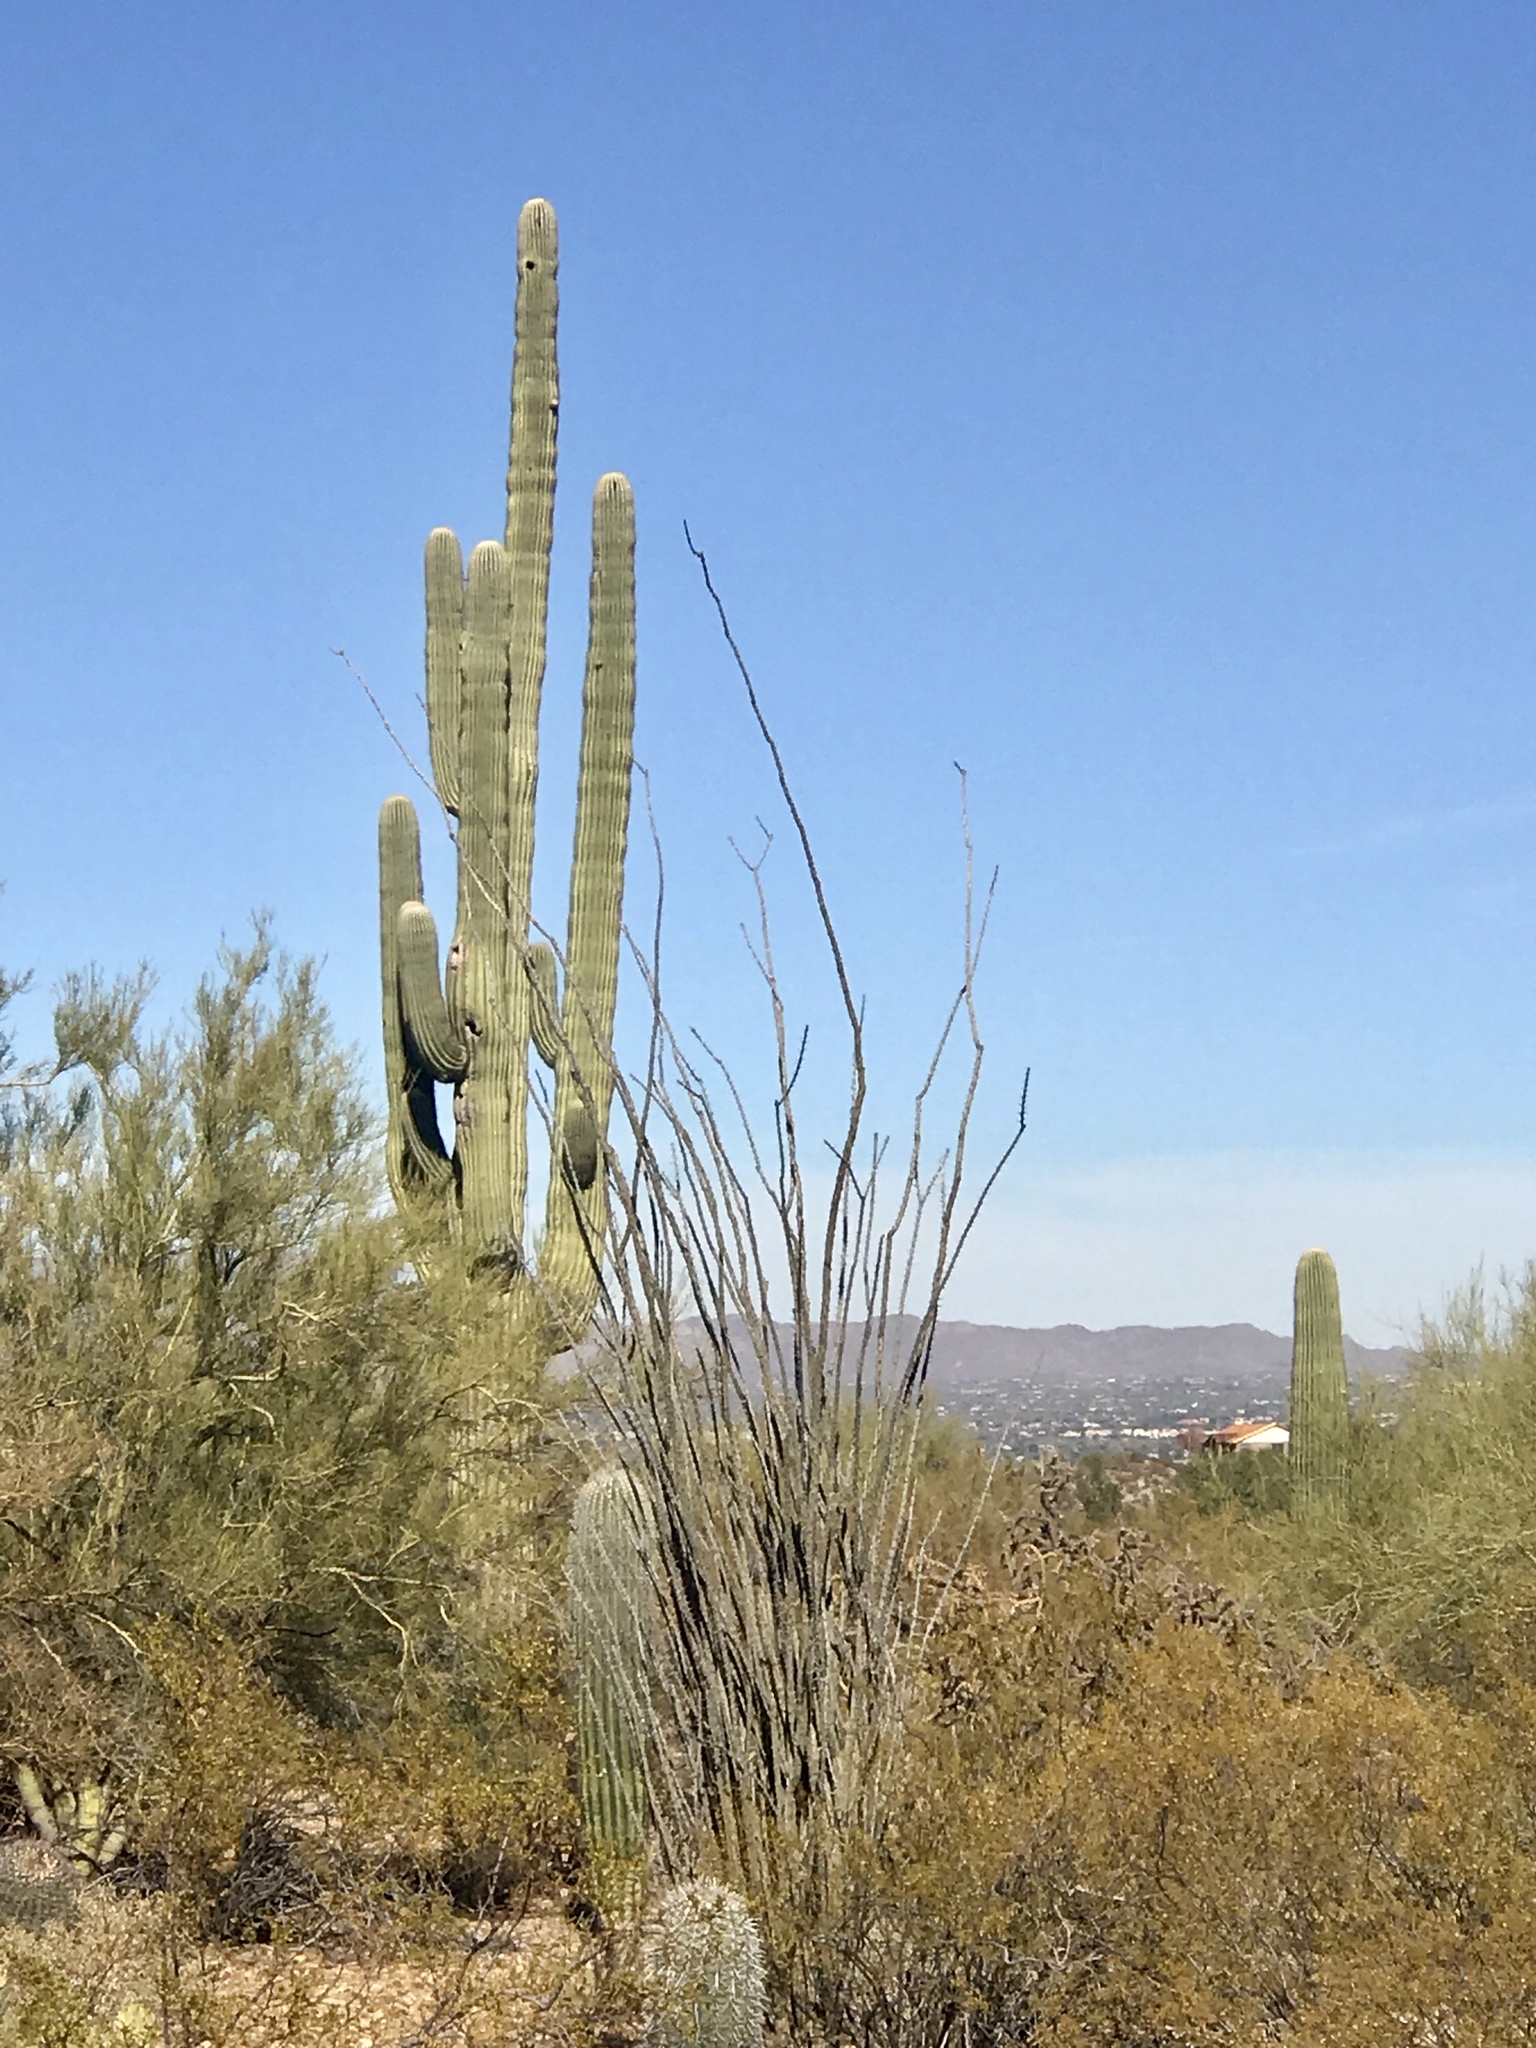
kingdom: Plantae
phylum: Tracheophyta
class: Magnoliopsida
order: Caryophyllales
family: Cactaceae
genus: Carnegiea
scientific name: Carnegiea gigantea
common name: Saguaro
